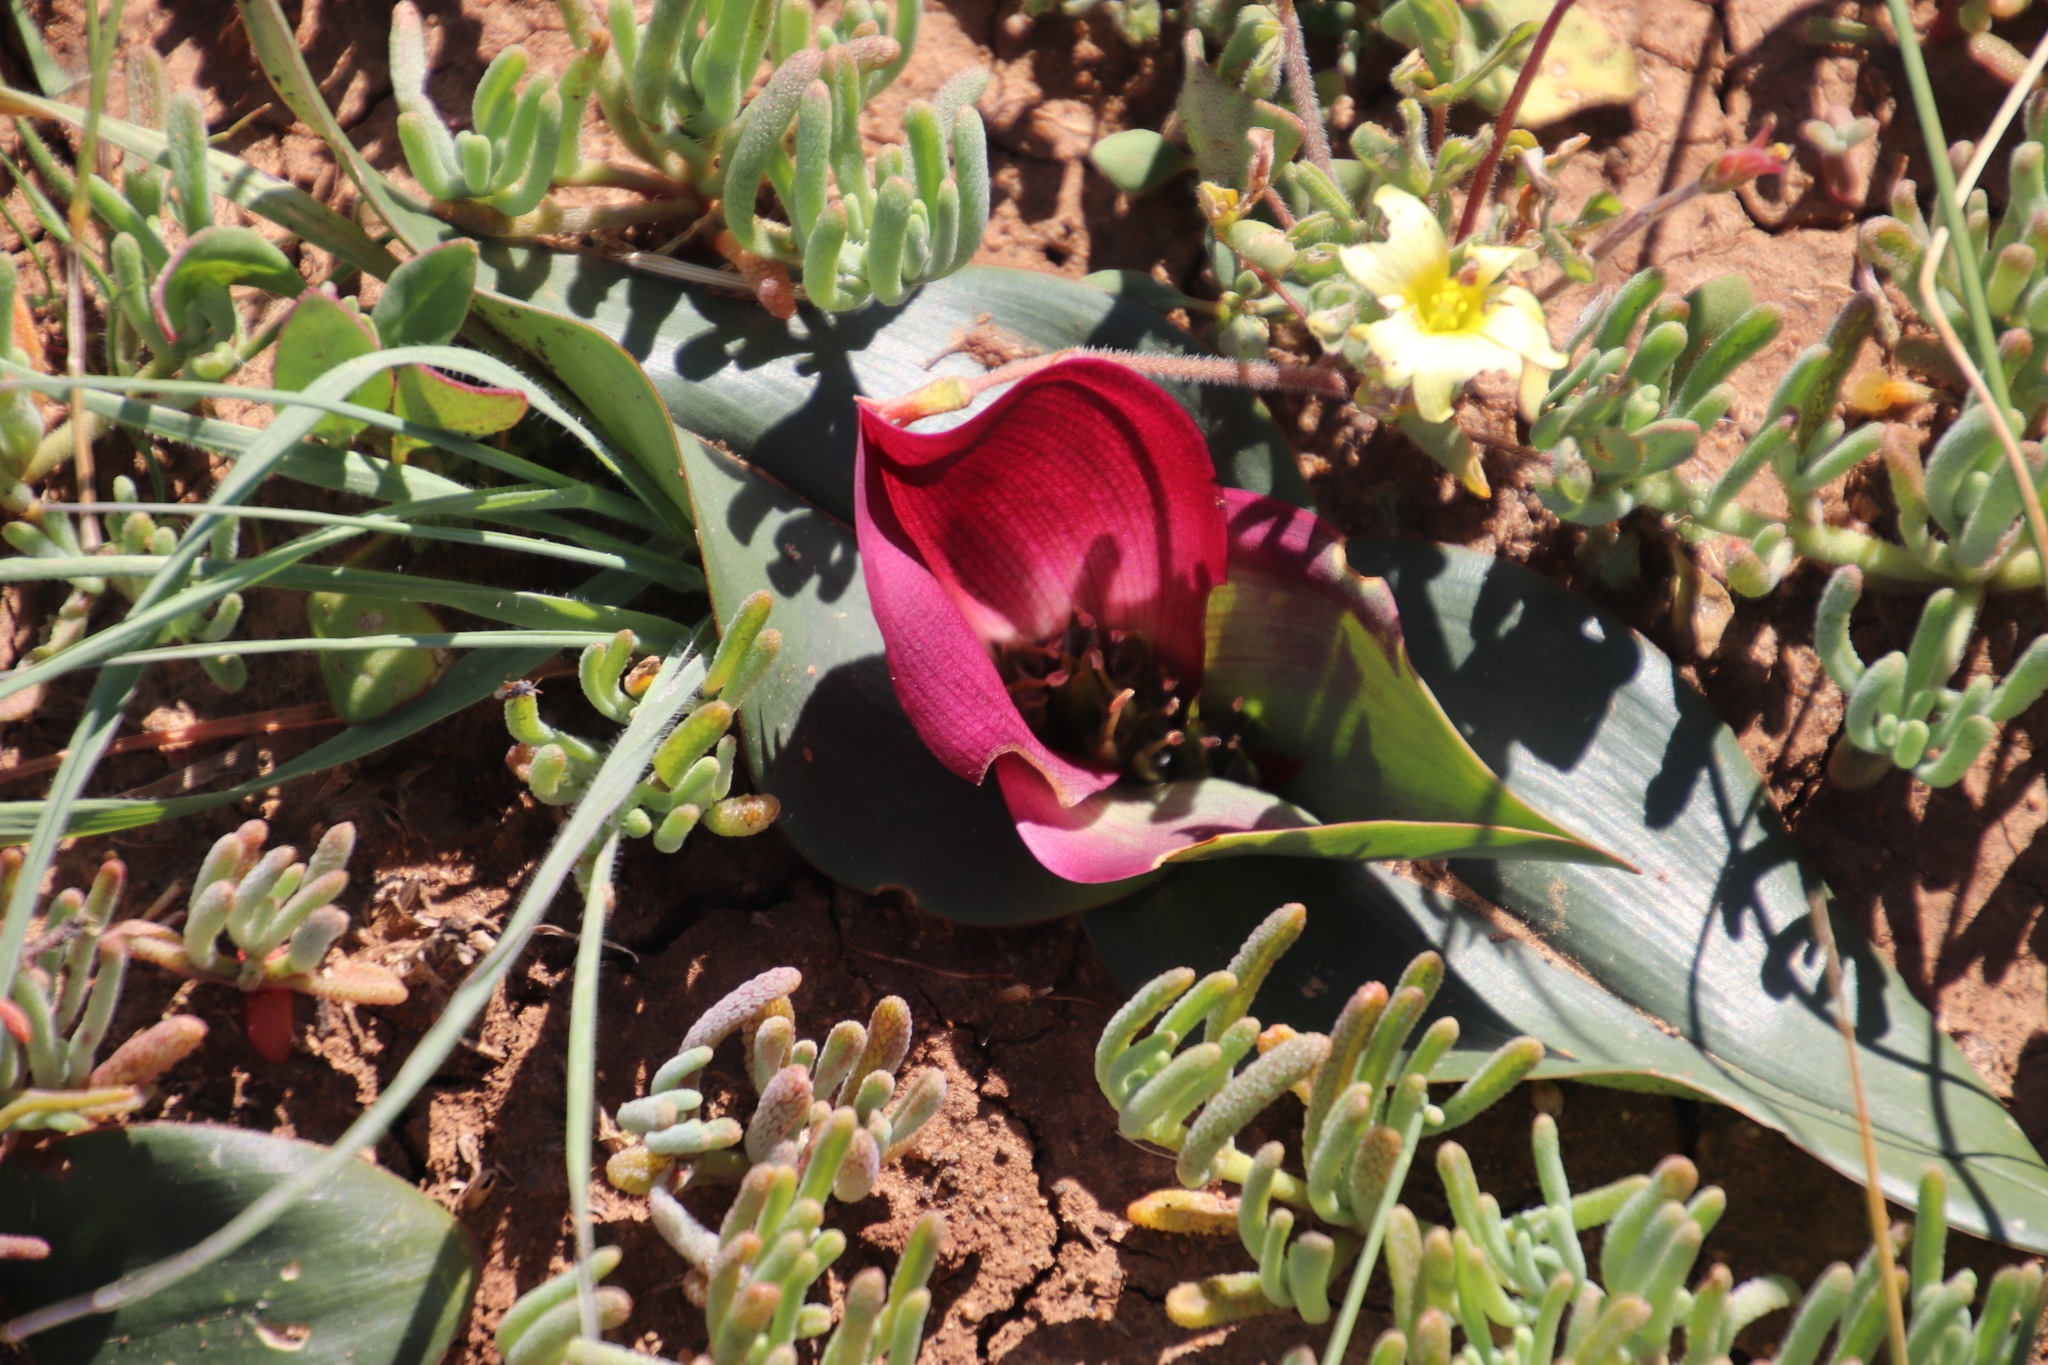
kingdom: Plantae
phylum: Tracheophyta
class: Liliopsida
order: Liliales
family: Colchicaceae
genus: Colchicum
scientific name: Colchicum burchellii
